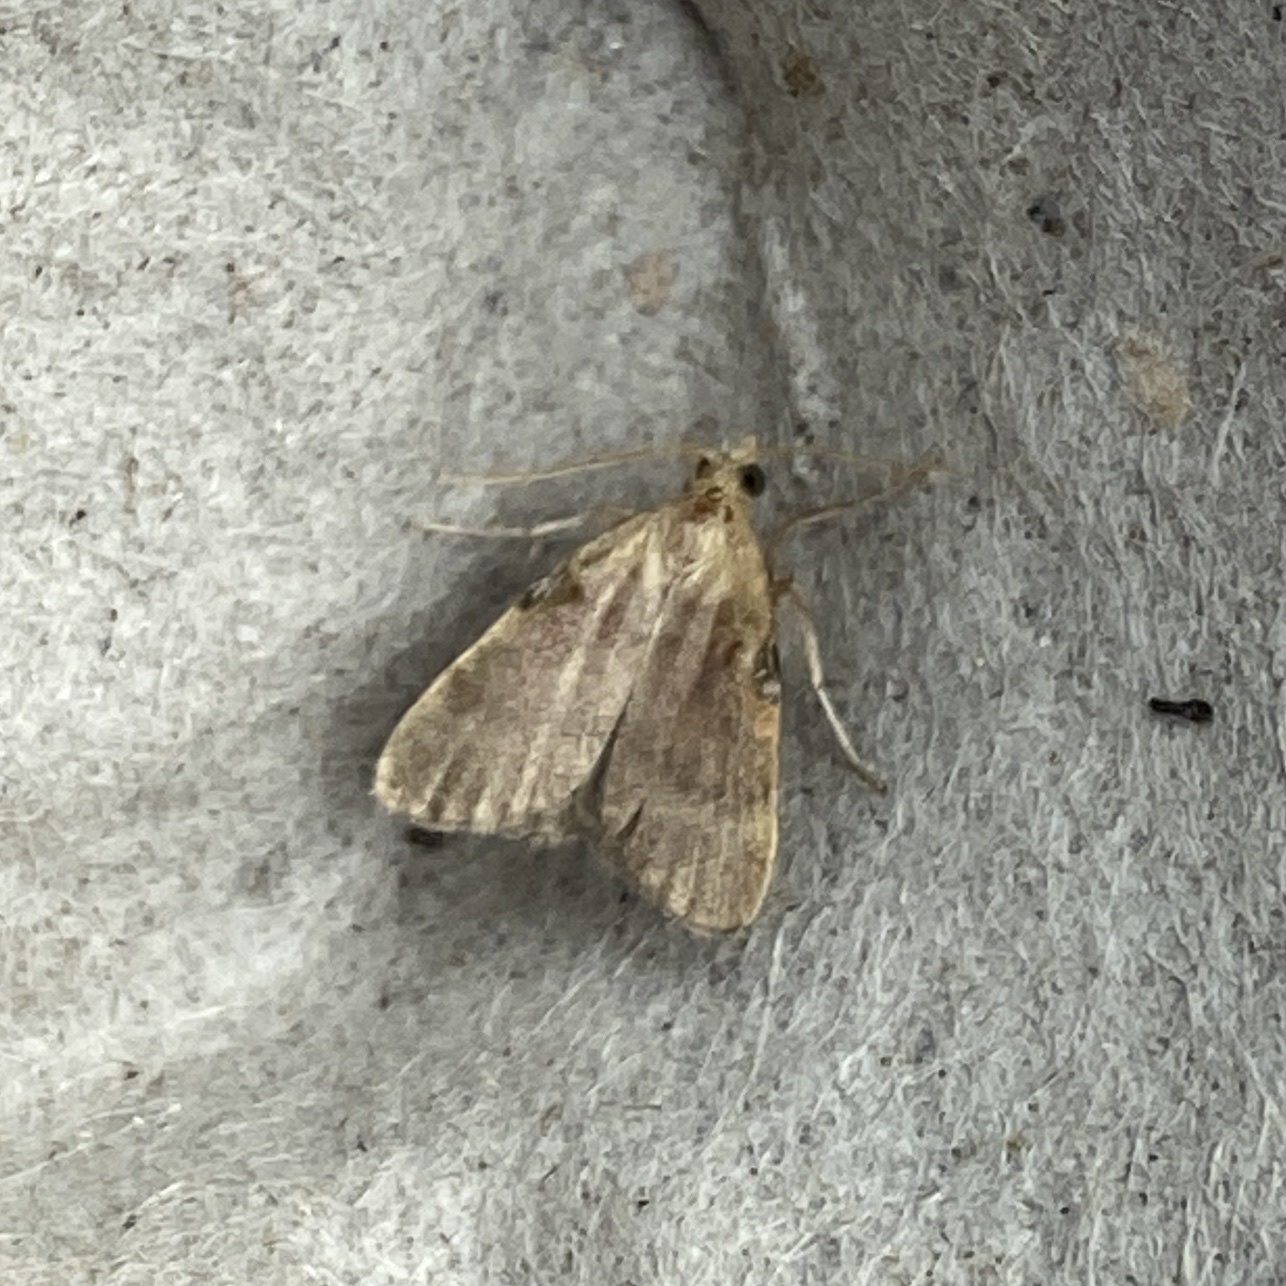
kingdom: Animalia
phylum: Arthropoda
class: Insecta
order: Lepidoptera
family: Pyralidae
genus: Condylolomia
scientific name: Condylolomia participialis
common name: Drab condylolomia moth
